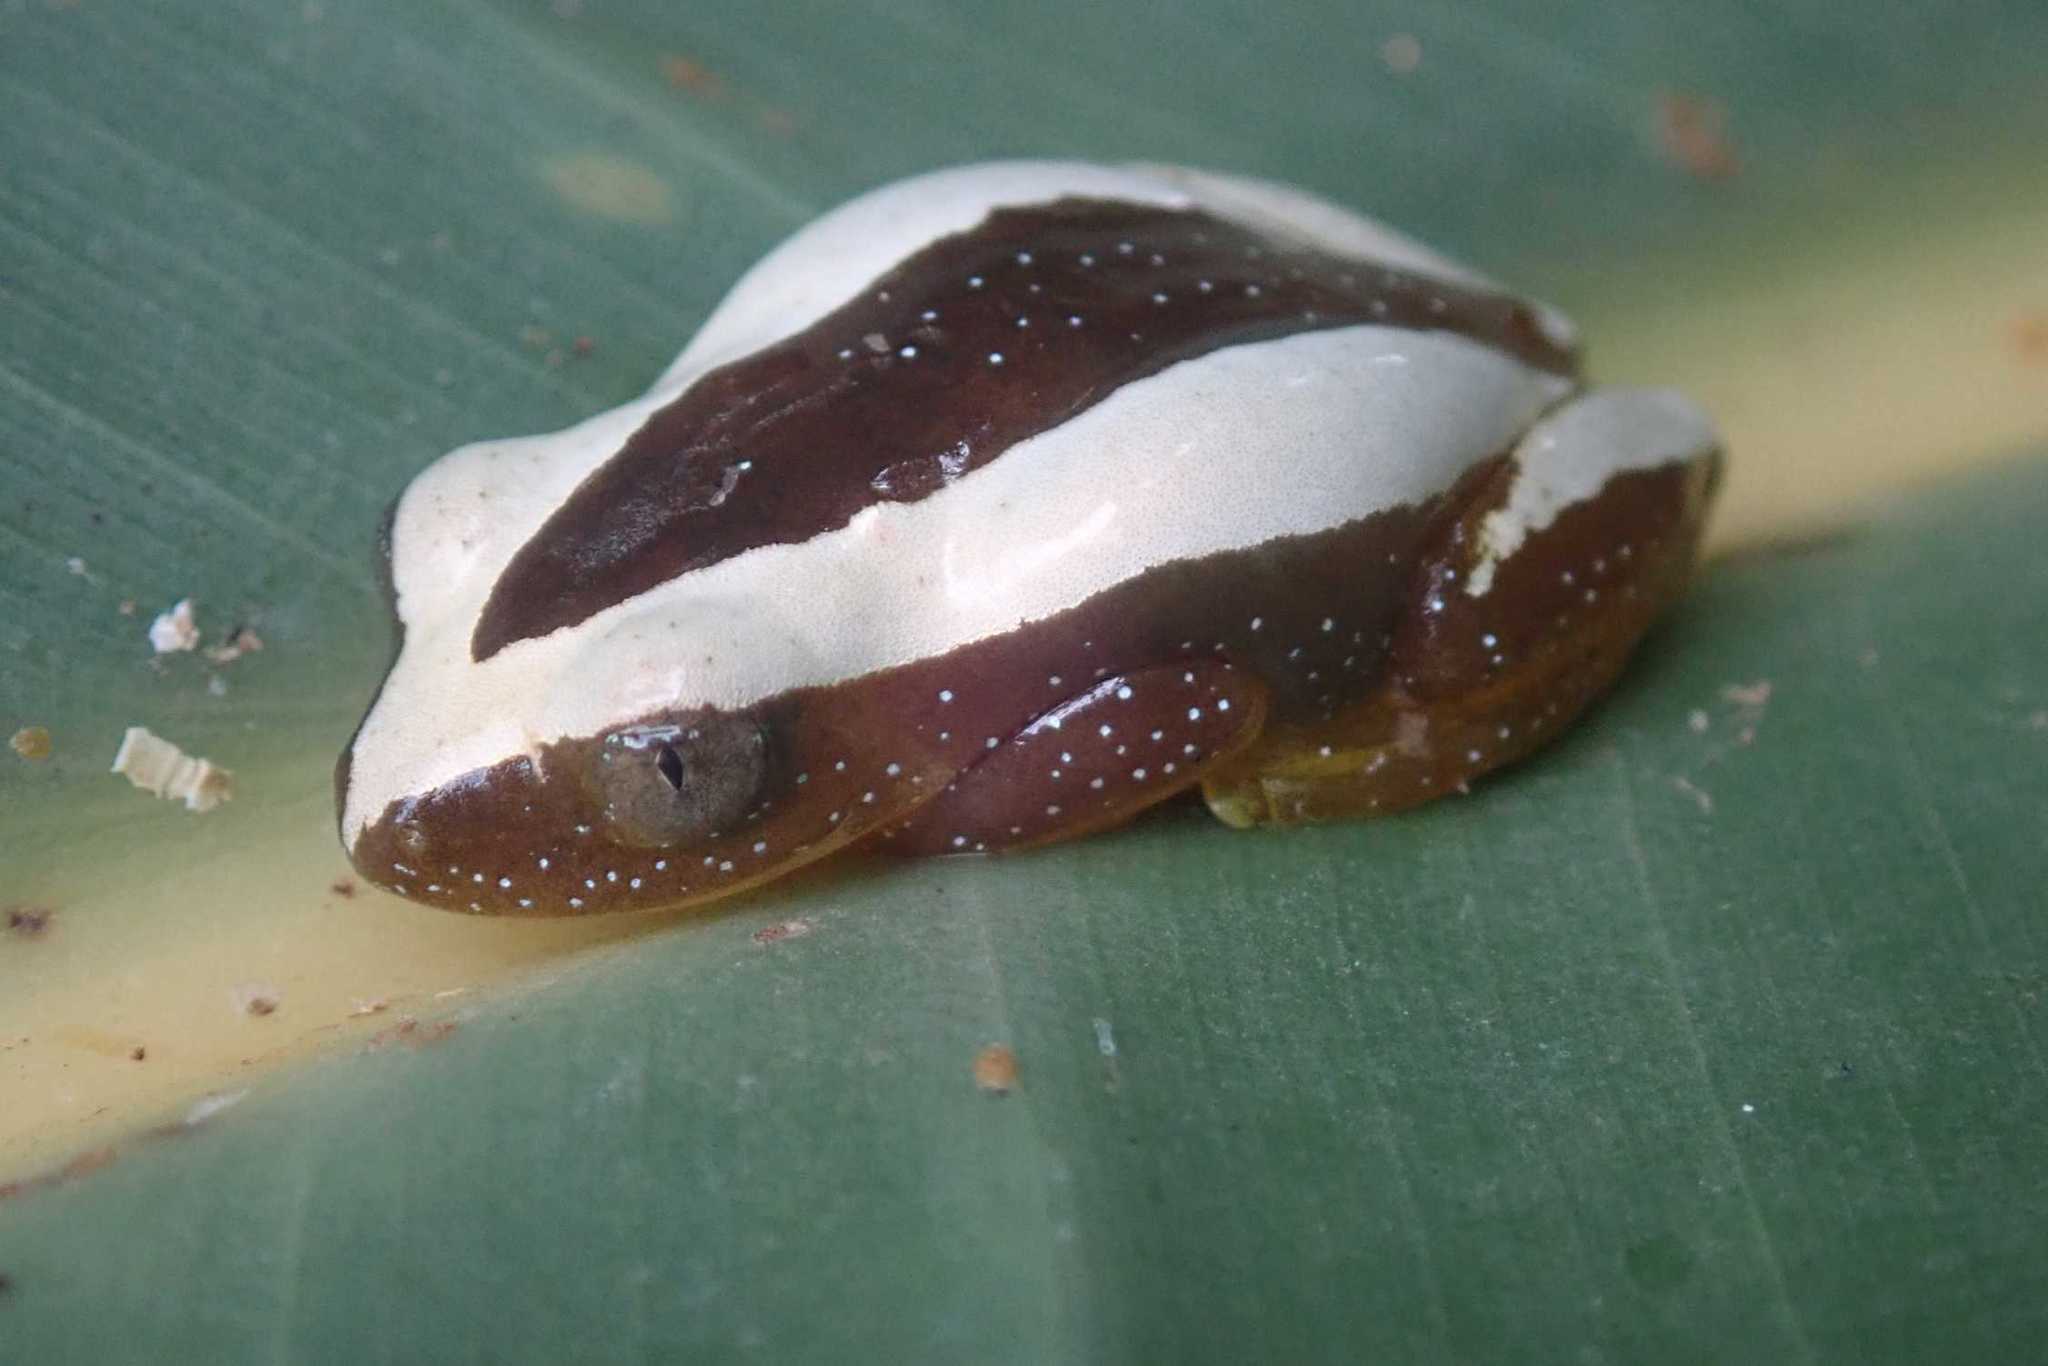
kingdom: Animalia
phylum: Chordata
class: Amphibia
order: Anura
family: Hyperoliidae
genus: Afrixalus
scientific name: Afrixalus fornasini
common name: Fornasini's spiny reed frog
